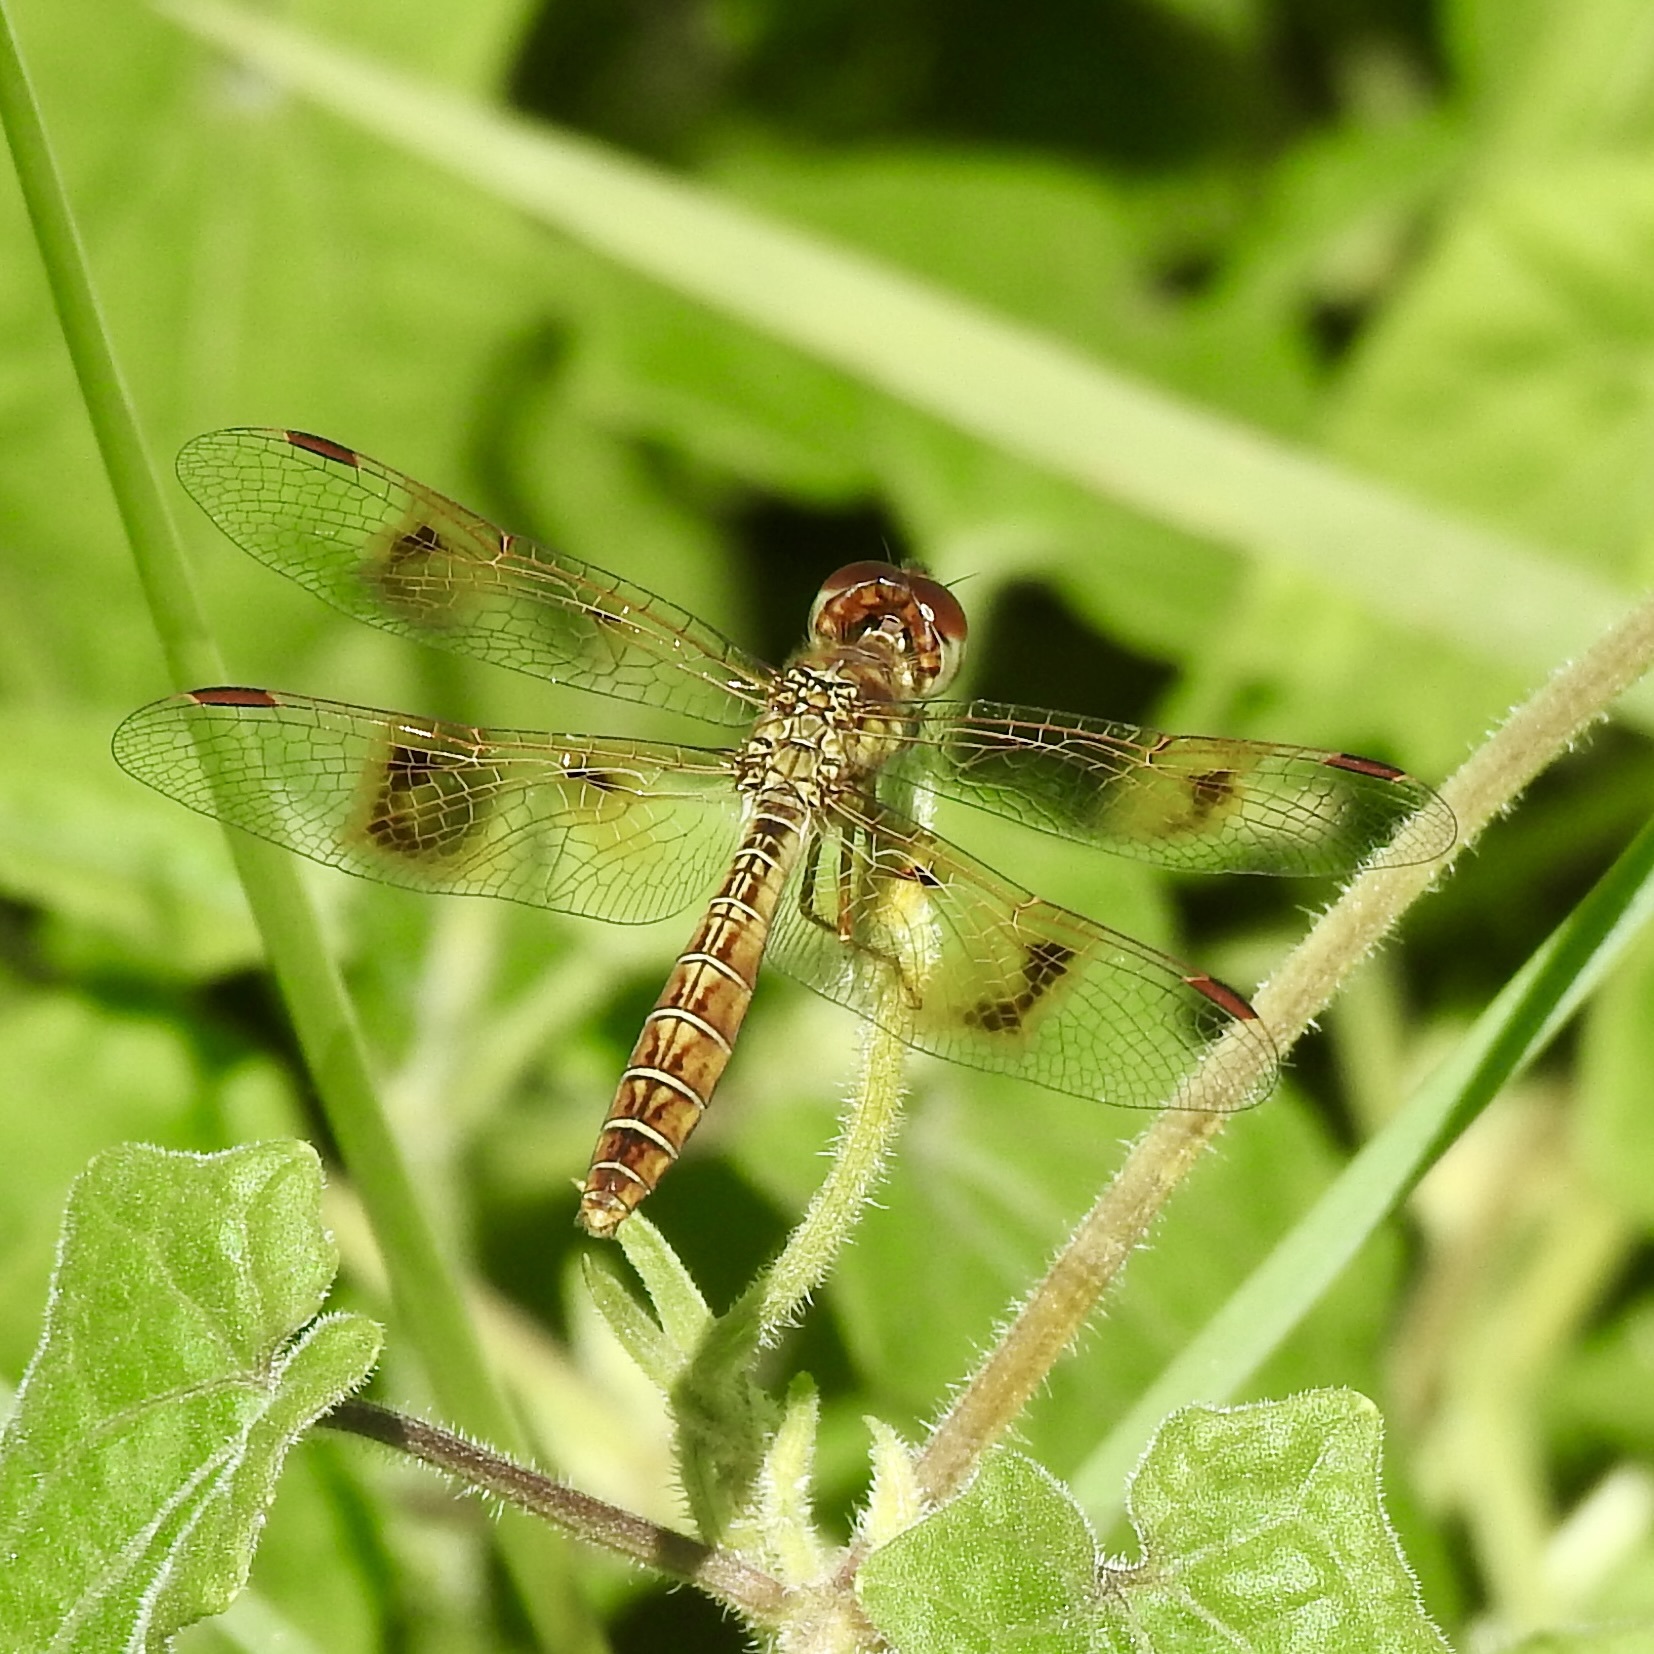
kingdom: Animalia
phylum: Arthropoda
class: Insecta
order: Odonata
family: Libellulidae
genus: Perithemis
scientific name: Perithemis tenera
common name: Eastern amberwing
